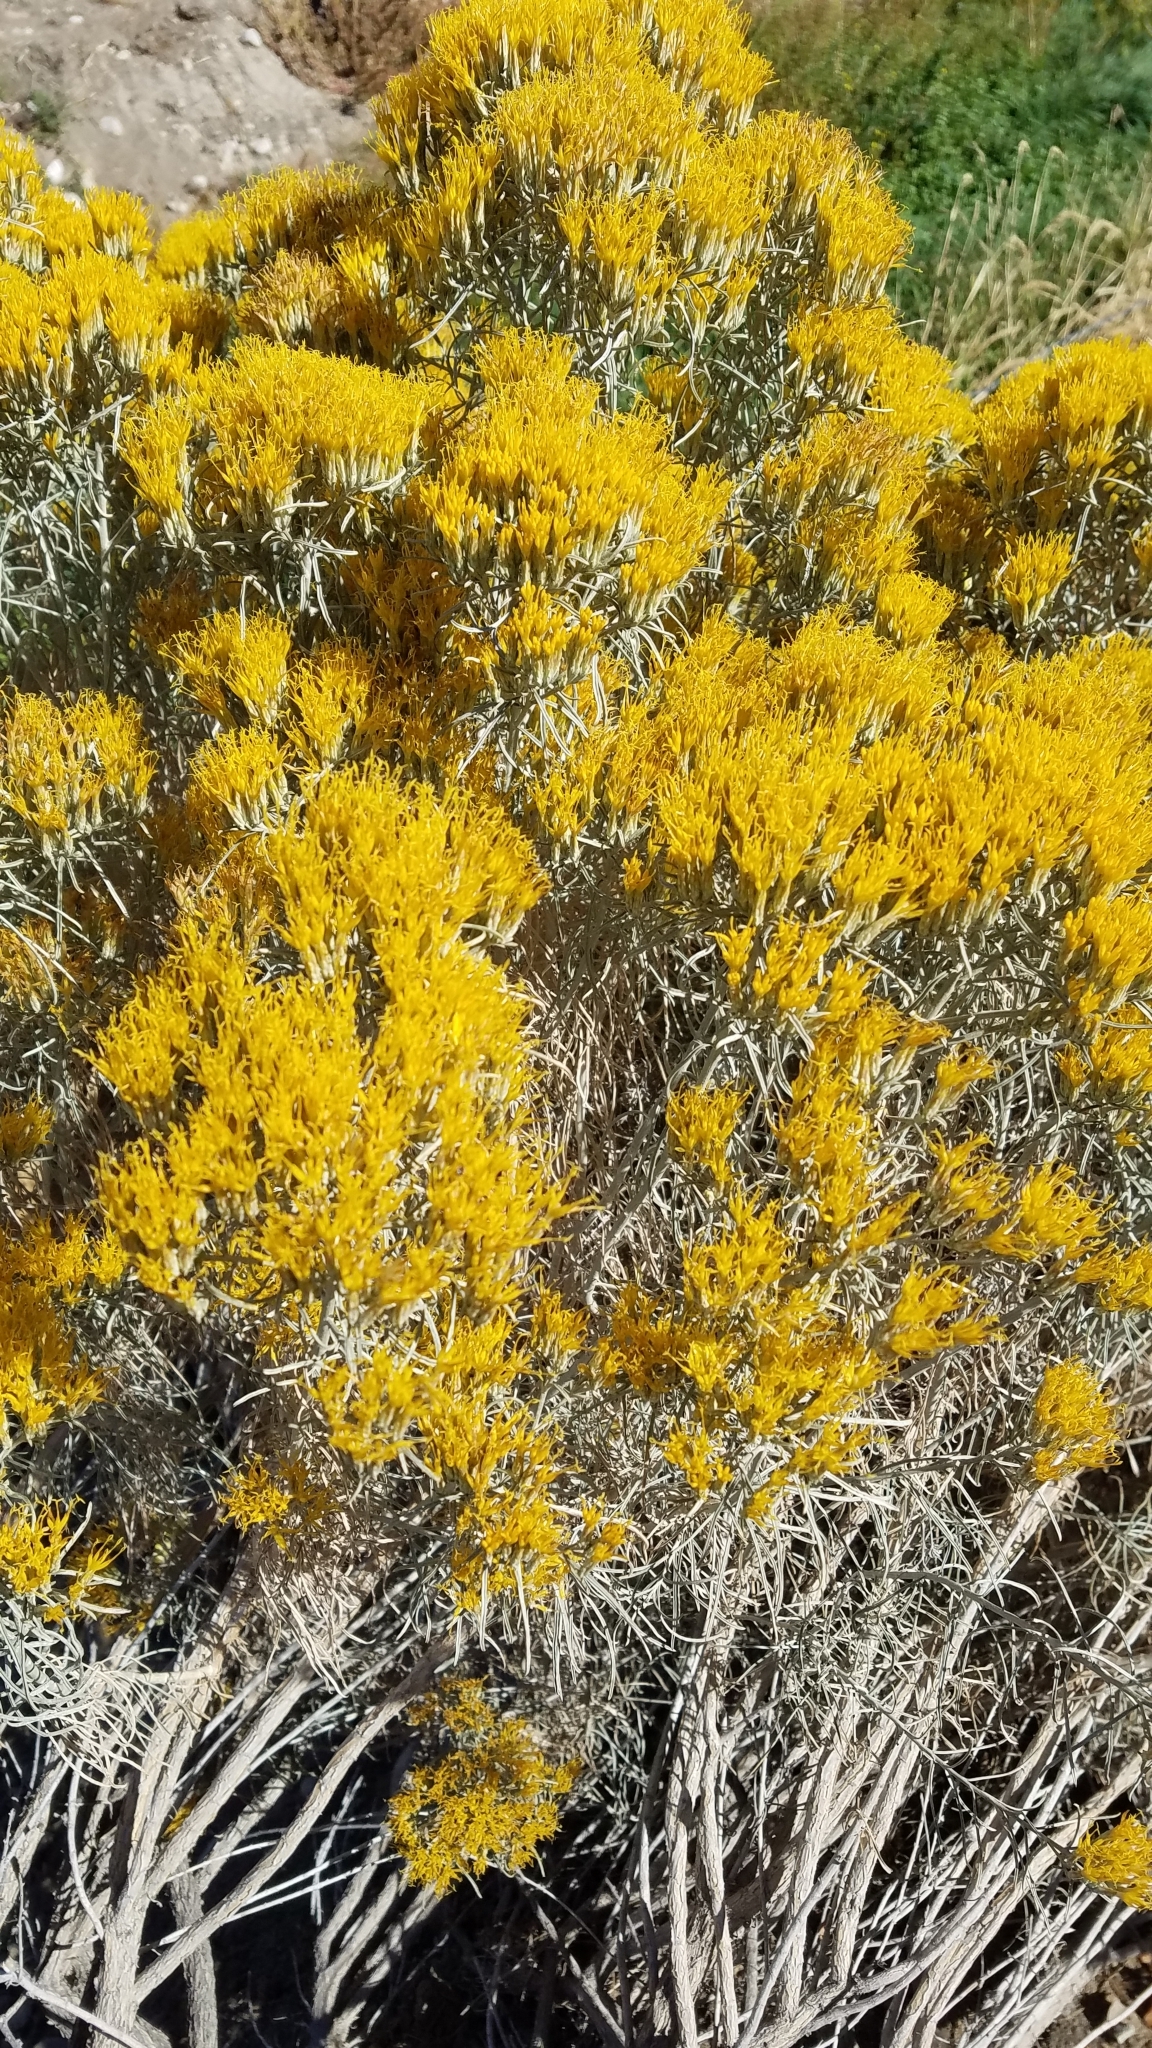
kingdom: Plantae
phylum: Tracheophyta
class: Magnoliopsida
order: Asterales
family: Asteraceae
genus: Ericameria
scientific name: Ericameria nauseosa
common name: Rubber rabbitbrush
